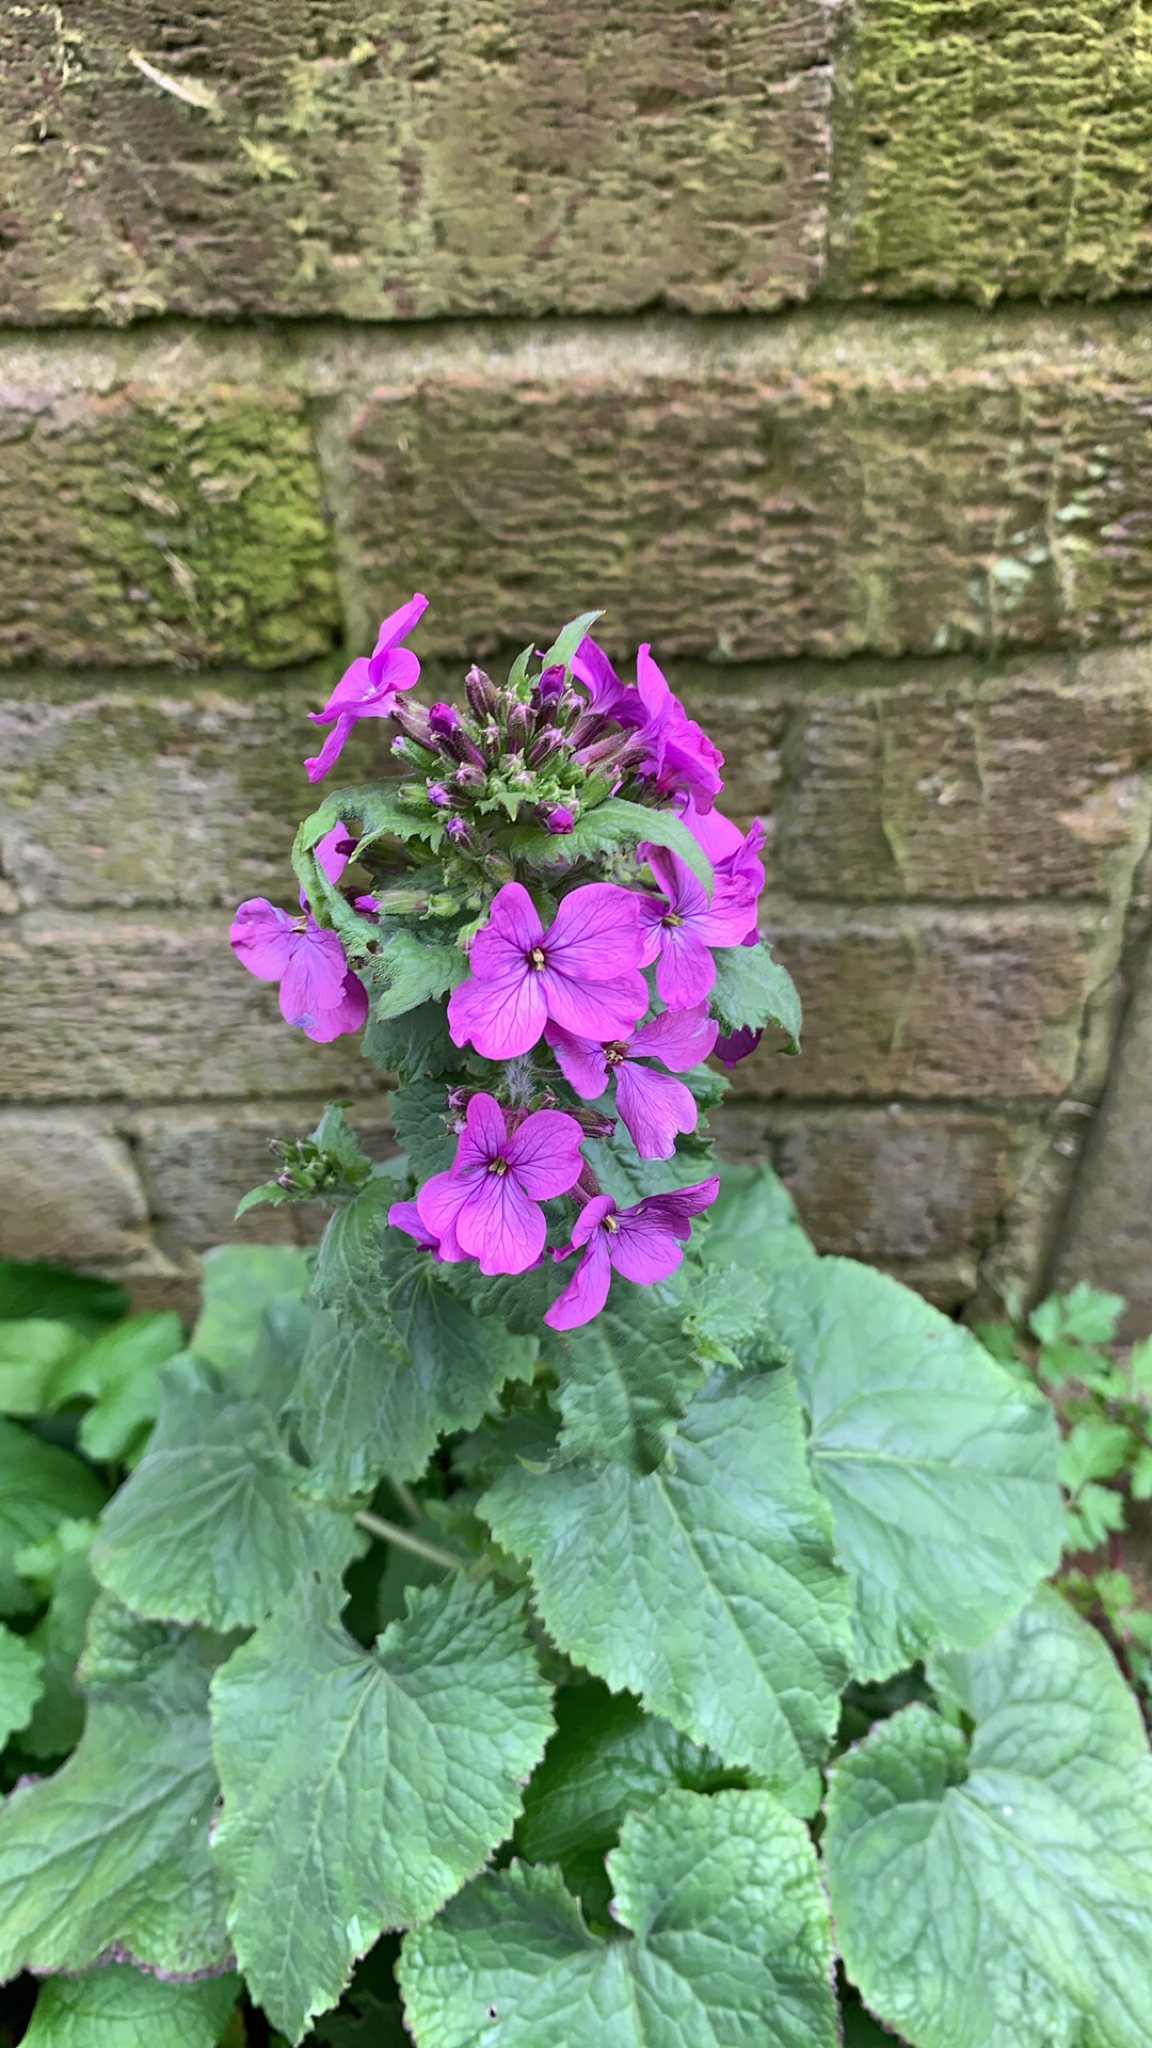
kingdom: Plantae
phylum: Tracheophyta
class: Magnoliopsida
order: Brassicales
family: Brassicaceae
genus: Lunaria
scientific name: Lunaria annua
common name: Honesty
